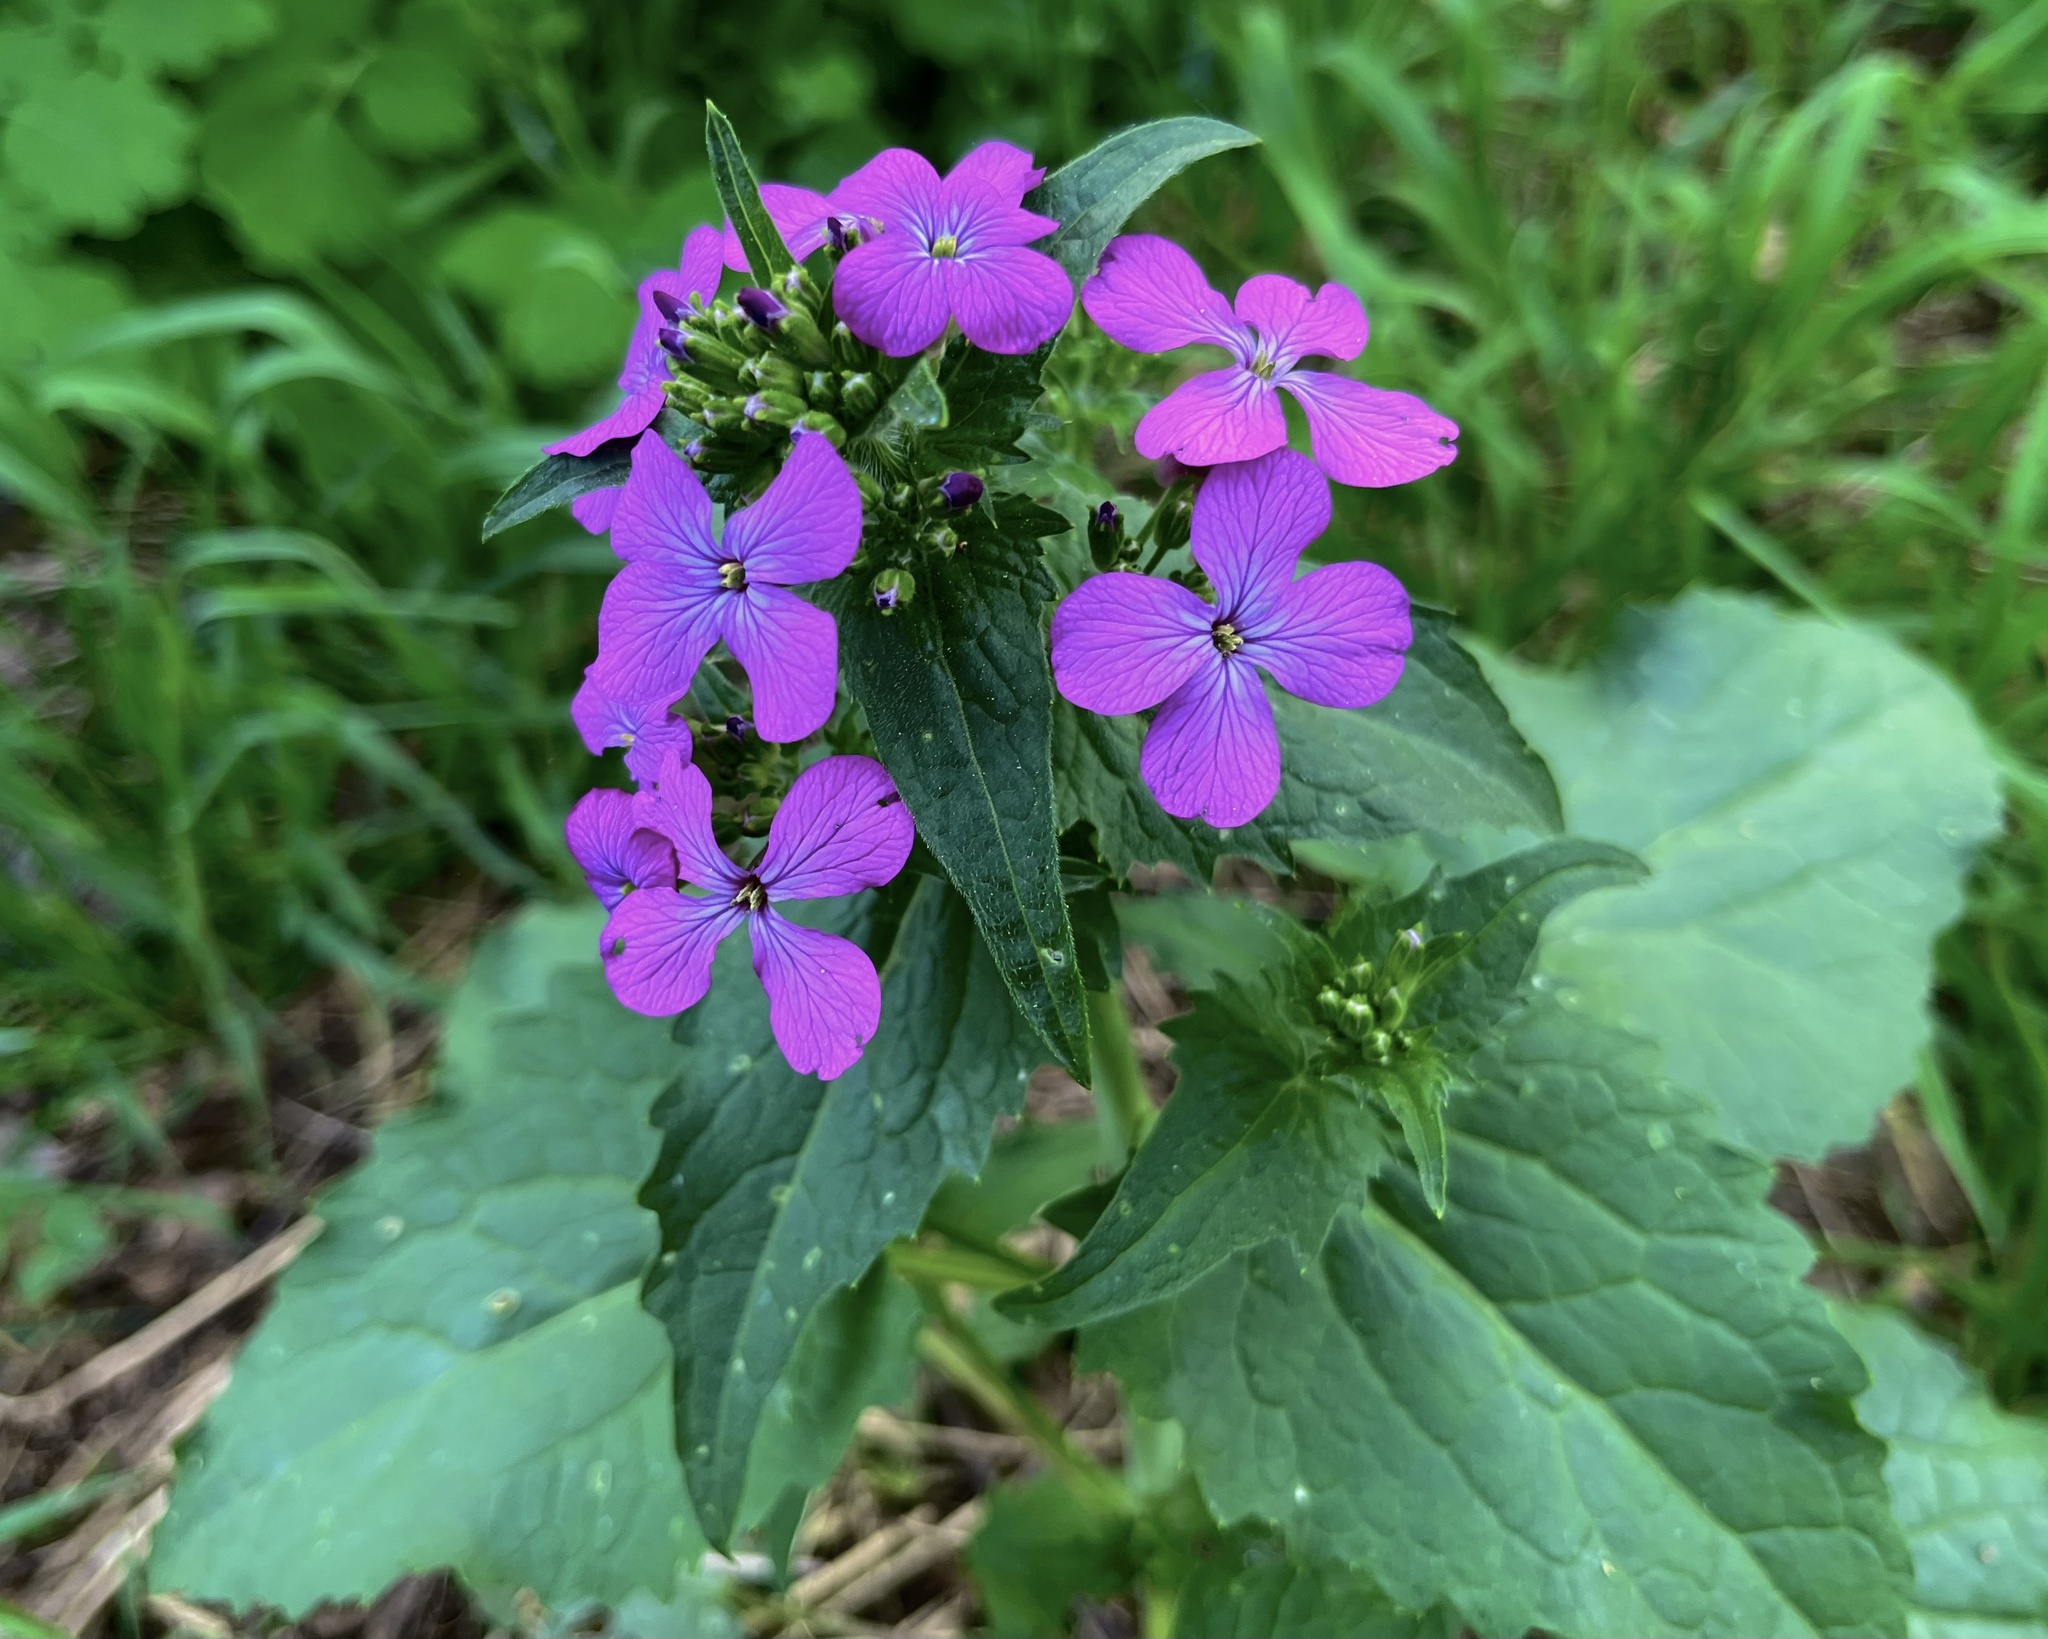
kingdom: Plantae
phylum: Tracheophyta
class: Magnoliopsida
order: Brassicales
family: Brassicaceae
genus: Lunaria
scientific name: Lunaria annua
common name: Honesty
